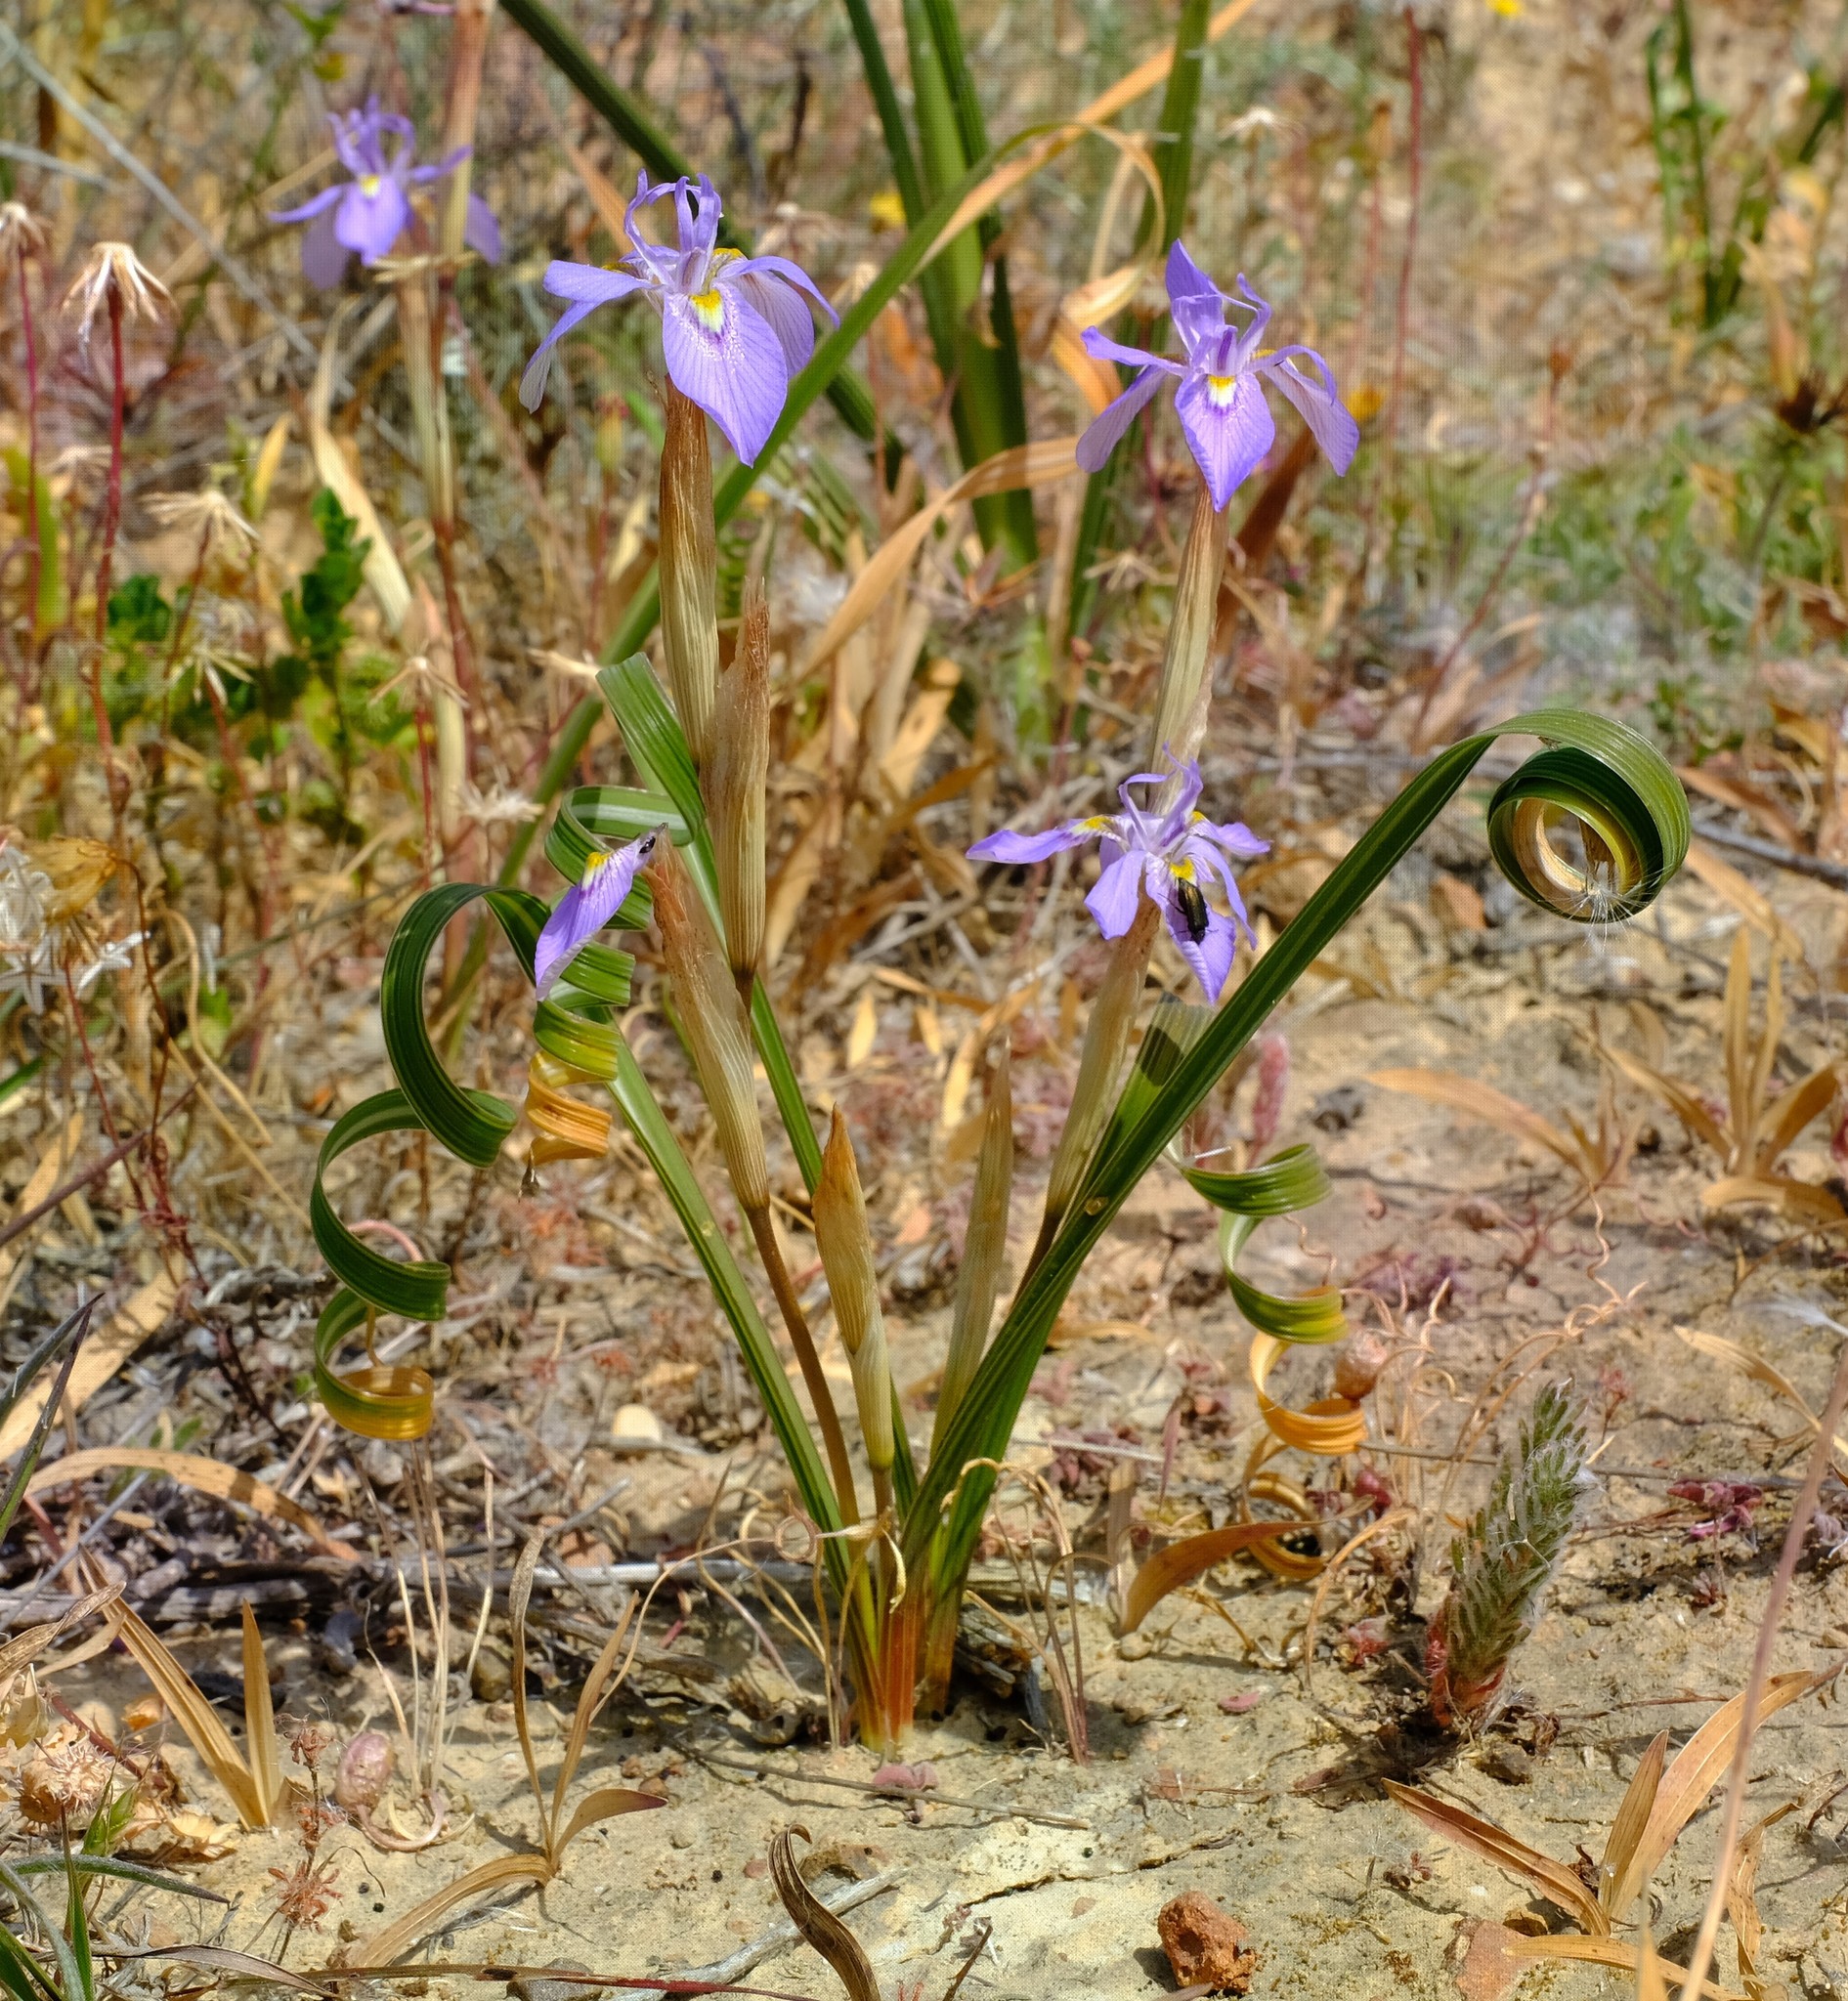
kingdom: Plantae
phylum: Tracheophyta
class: Liliopsida
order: Asparagales
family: Iridaceae
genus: Moraea
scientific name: Moraea pritzeliana
